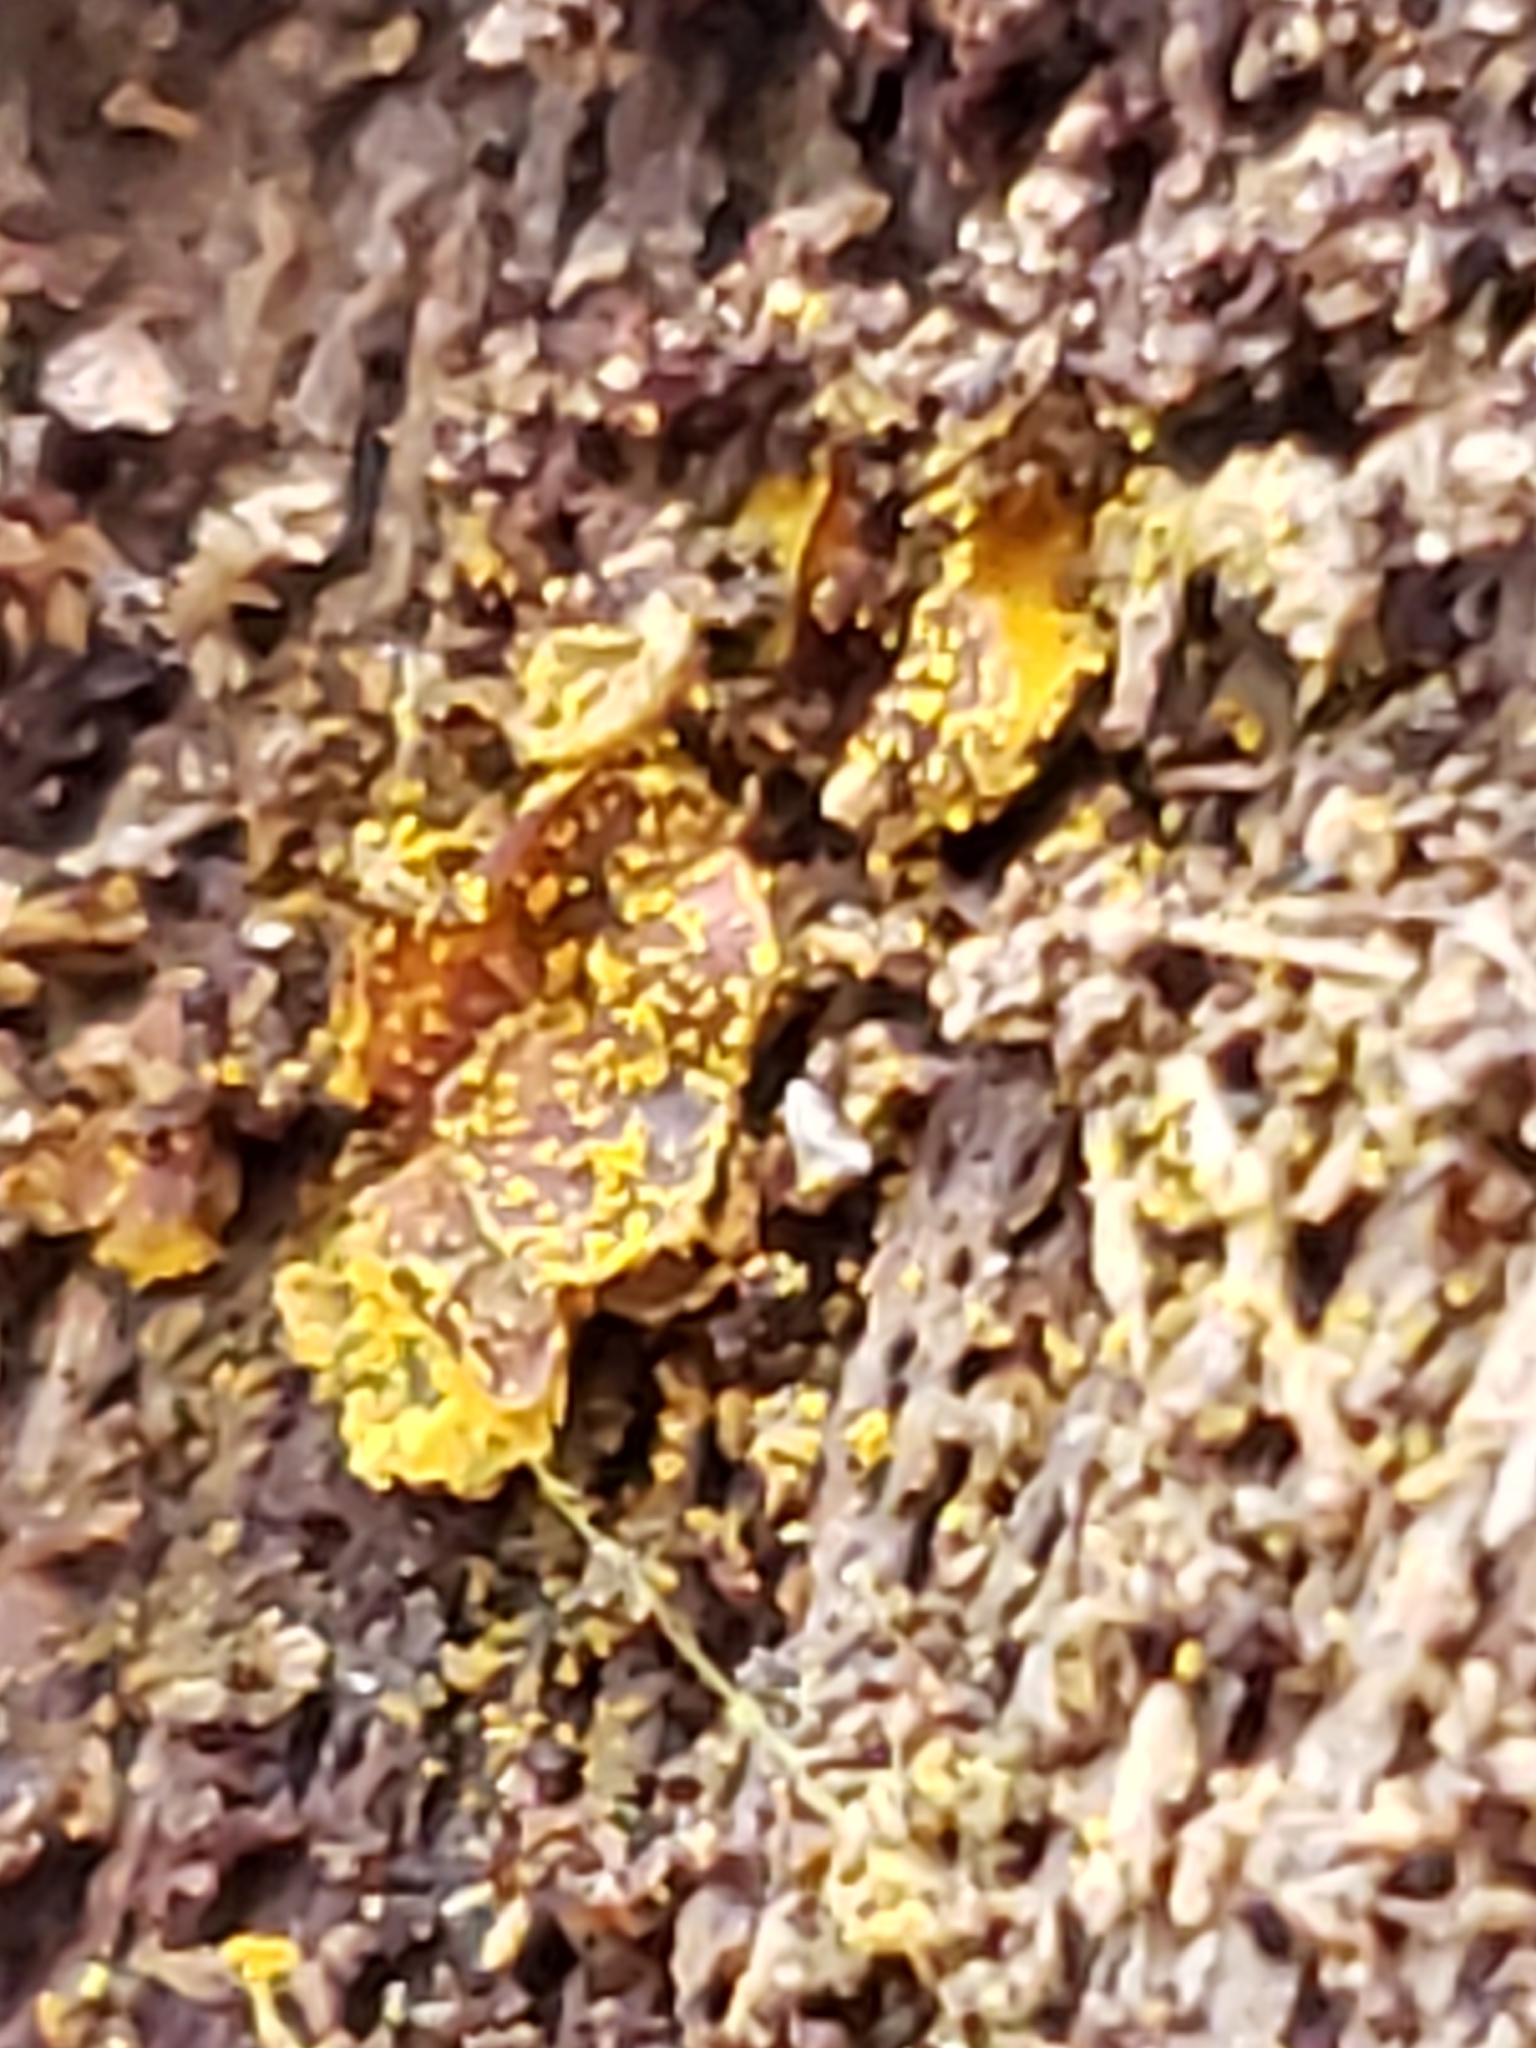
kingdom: Protozoa
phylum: Mycetozoa
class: Myxomycetes
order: Trichiales
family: Trichiaceae
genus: Perichaena
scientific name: Perichaena depressa
